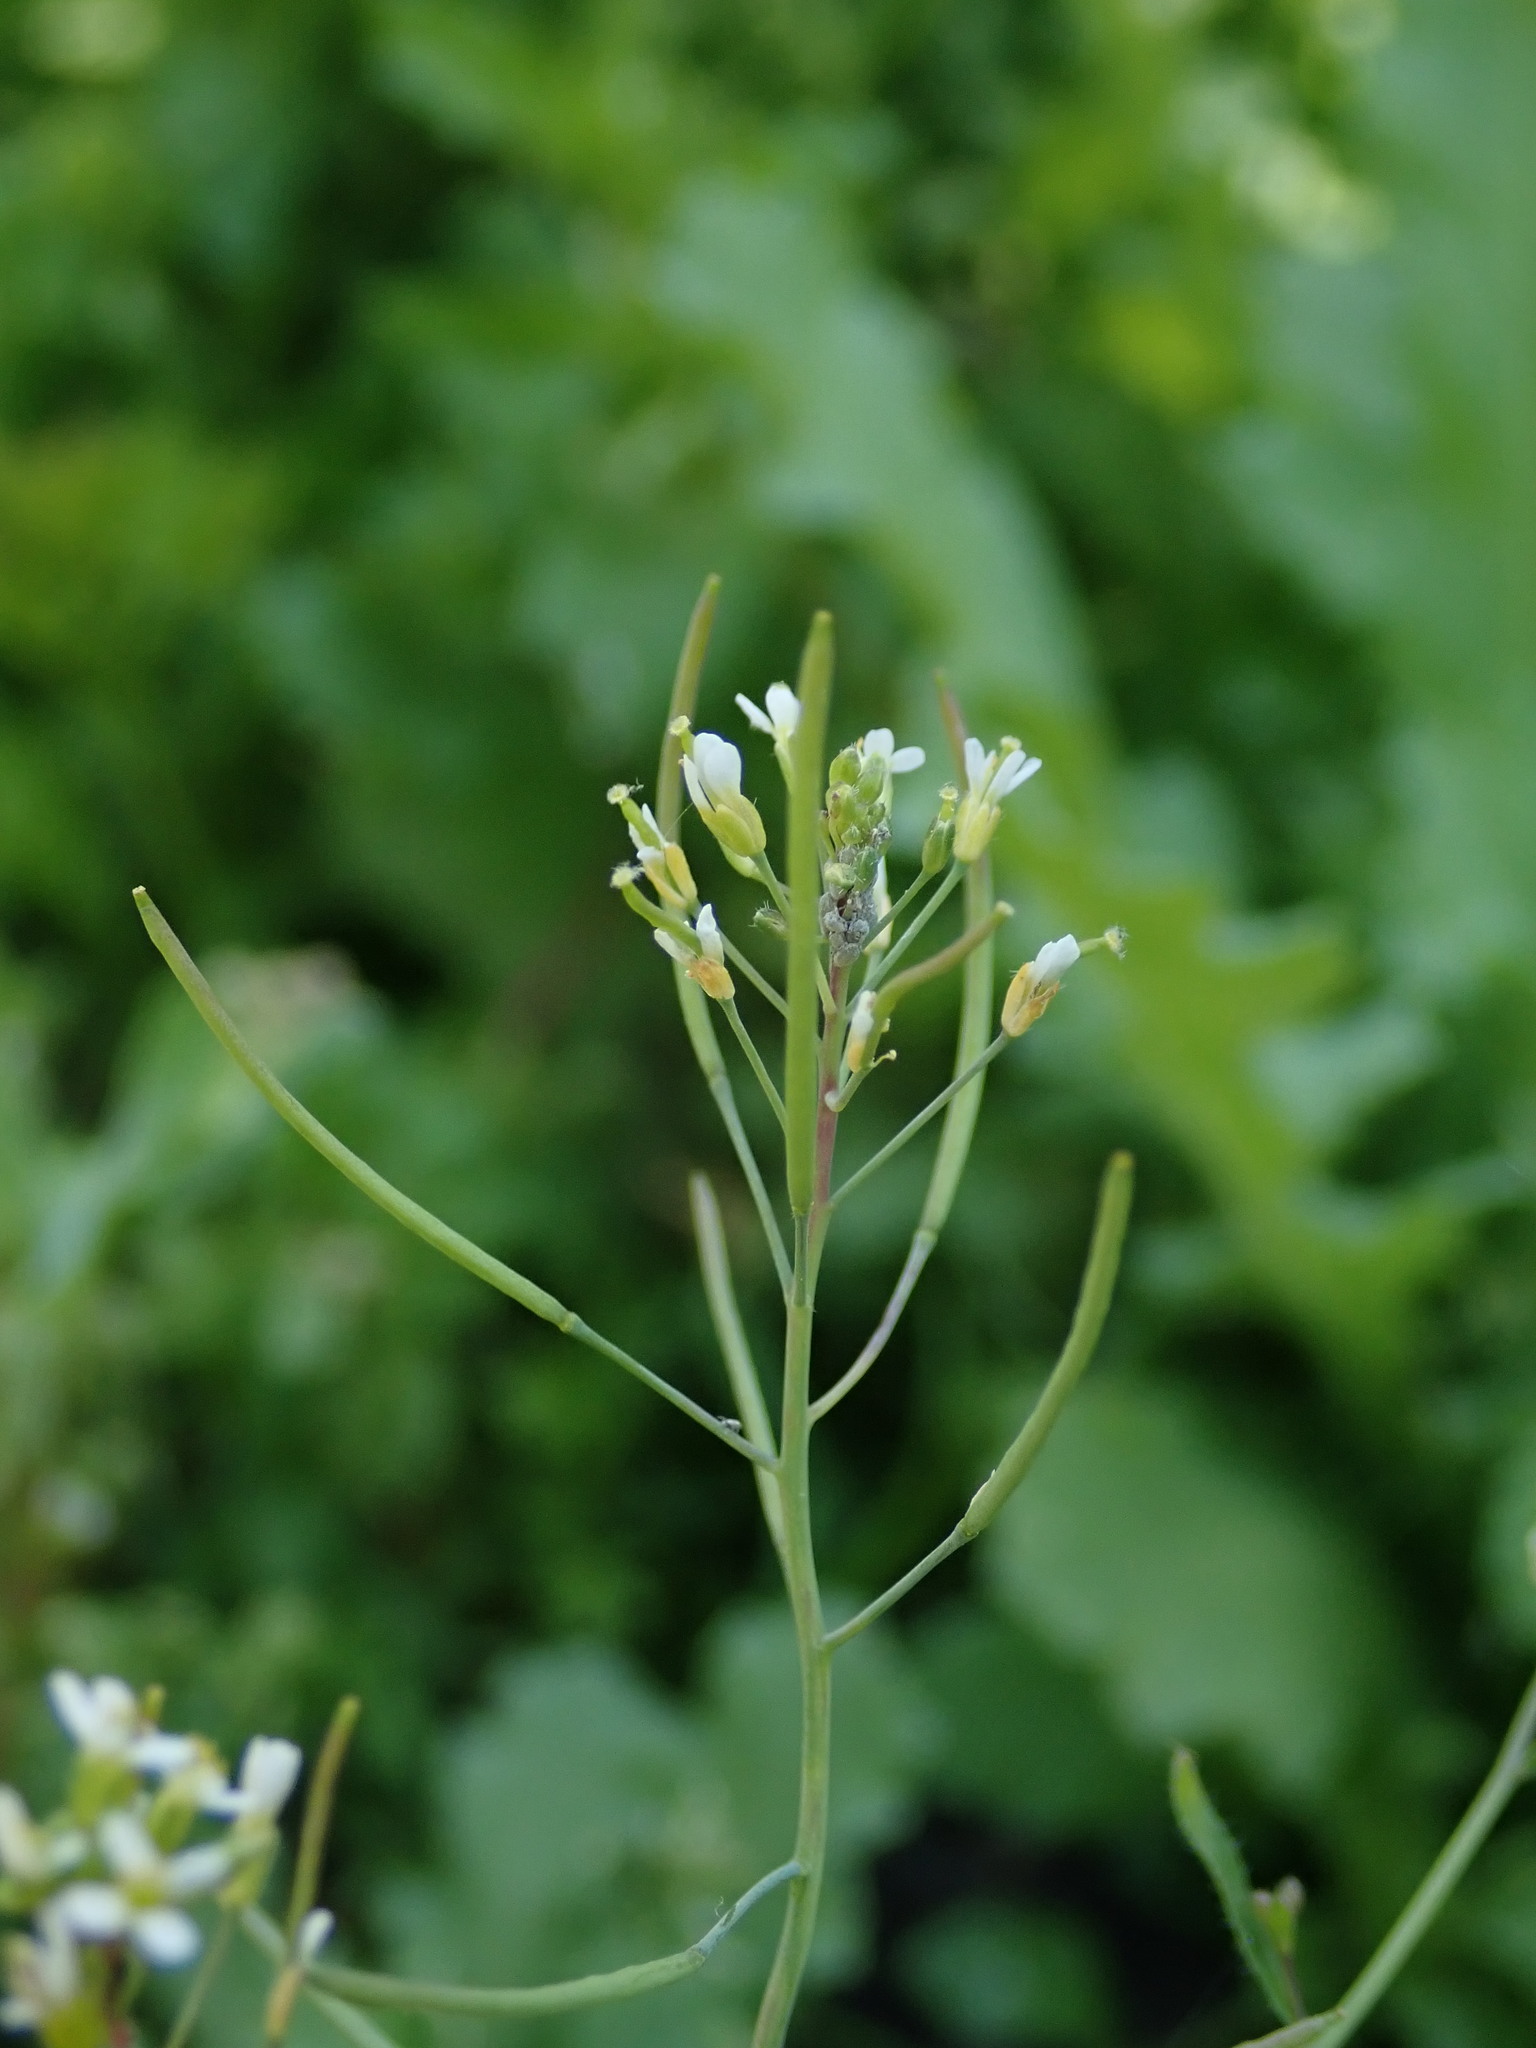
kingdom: Plantae
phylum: Tracheophyta
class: Magnoliopsida
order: Brassicales
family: Brassicaceae
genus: Arabidopsis
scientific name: Arabidopsis thaliana
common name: Thale cress
